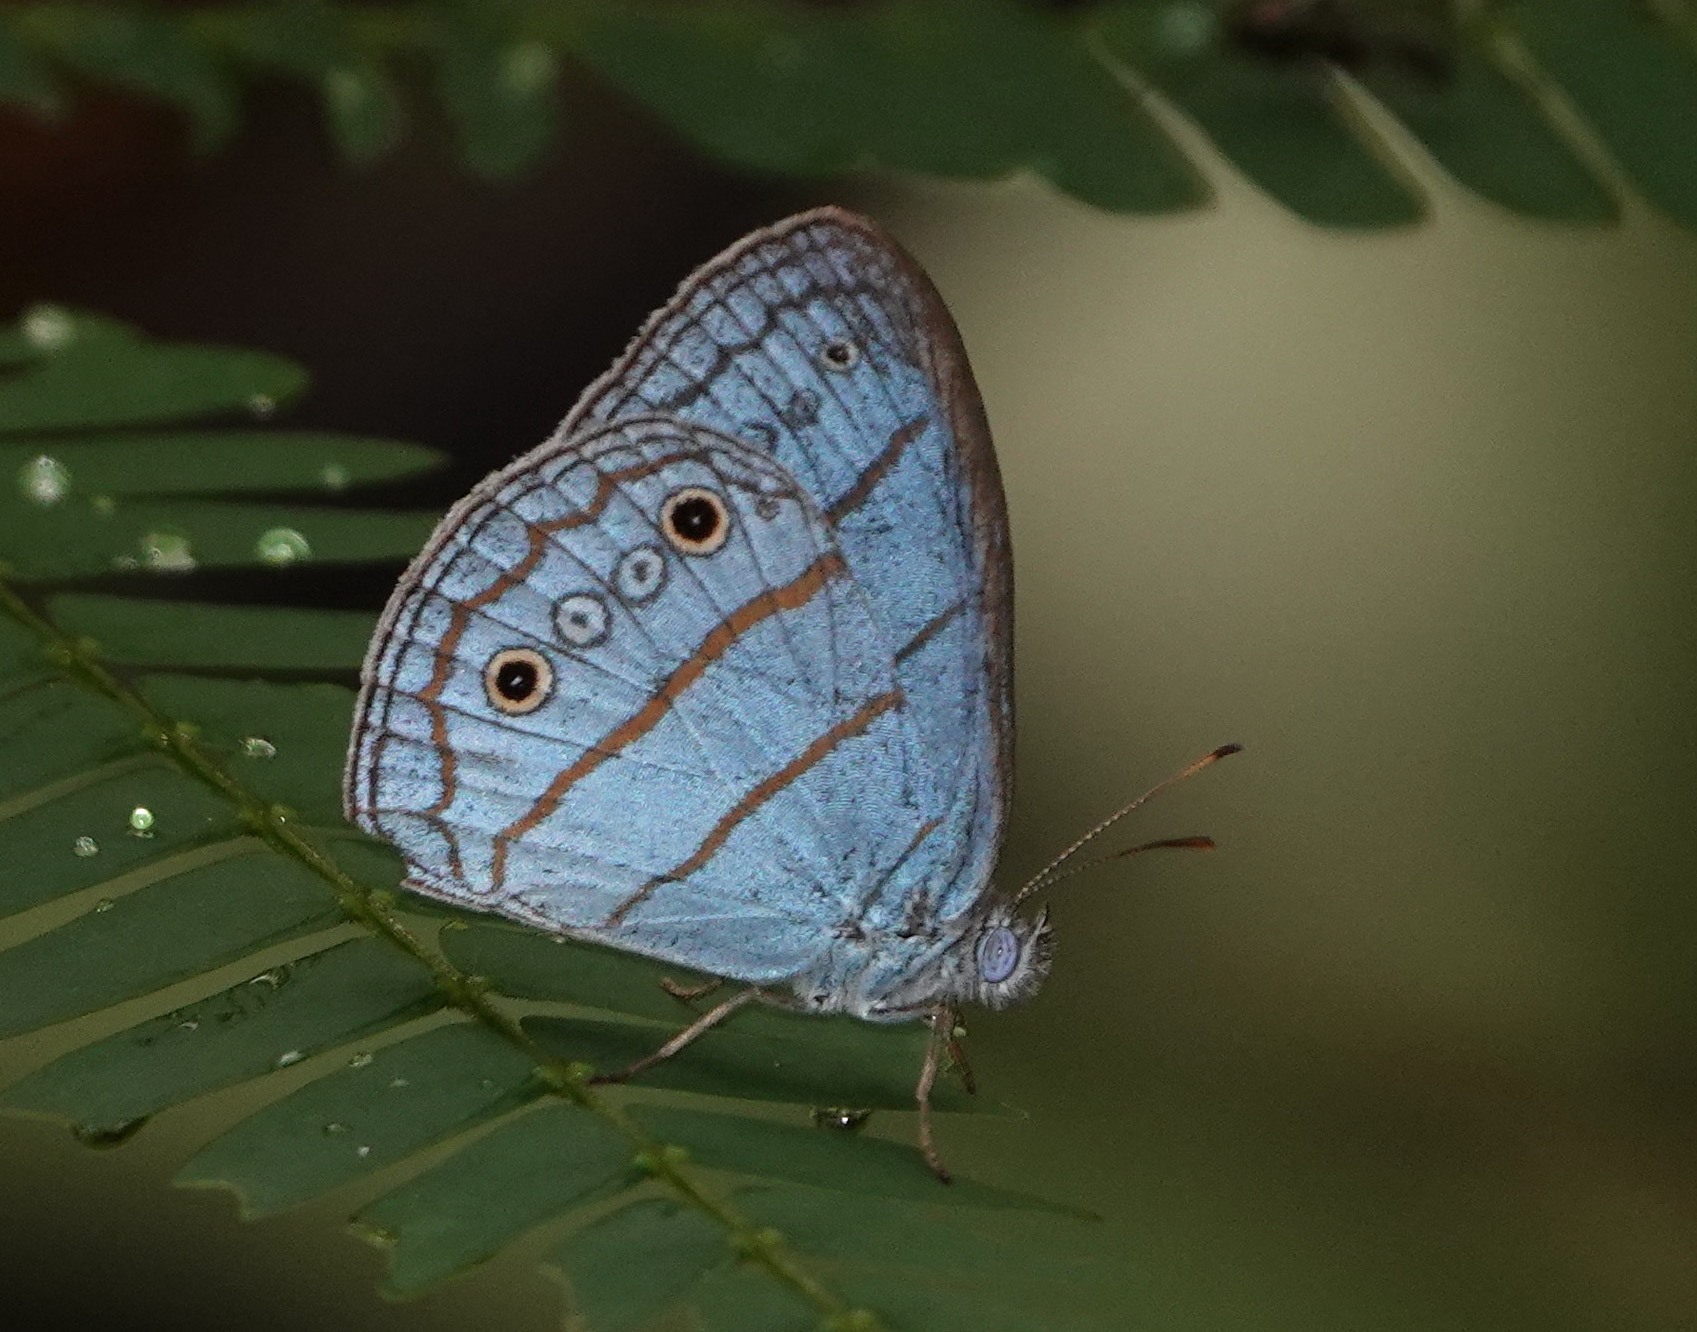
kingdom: Animalia
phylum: Arthropoda
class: Insecta
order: Lepidoptera
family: Nymphalidae
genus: Caeruleuptychia
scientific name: Caeruleuptychia aetherialis
